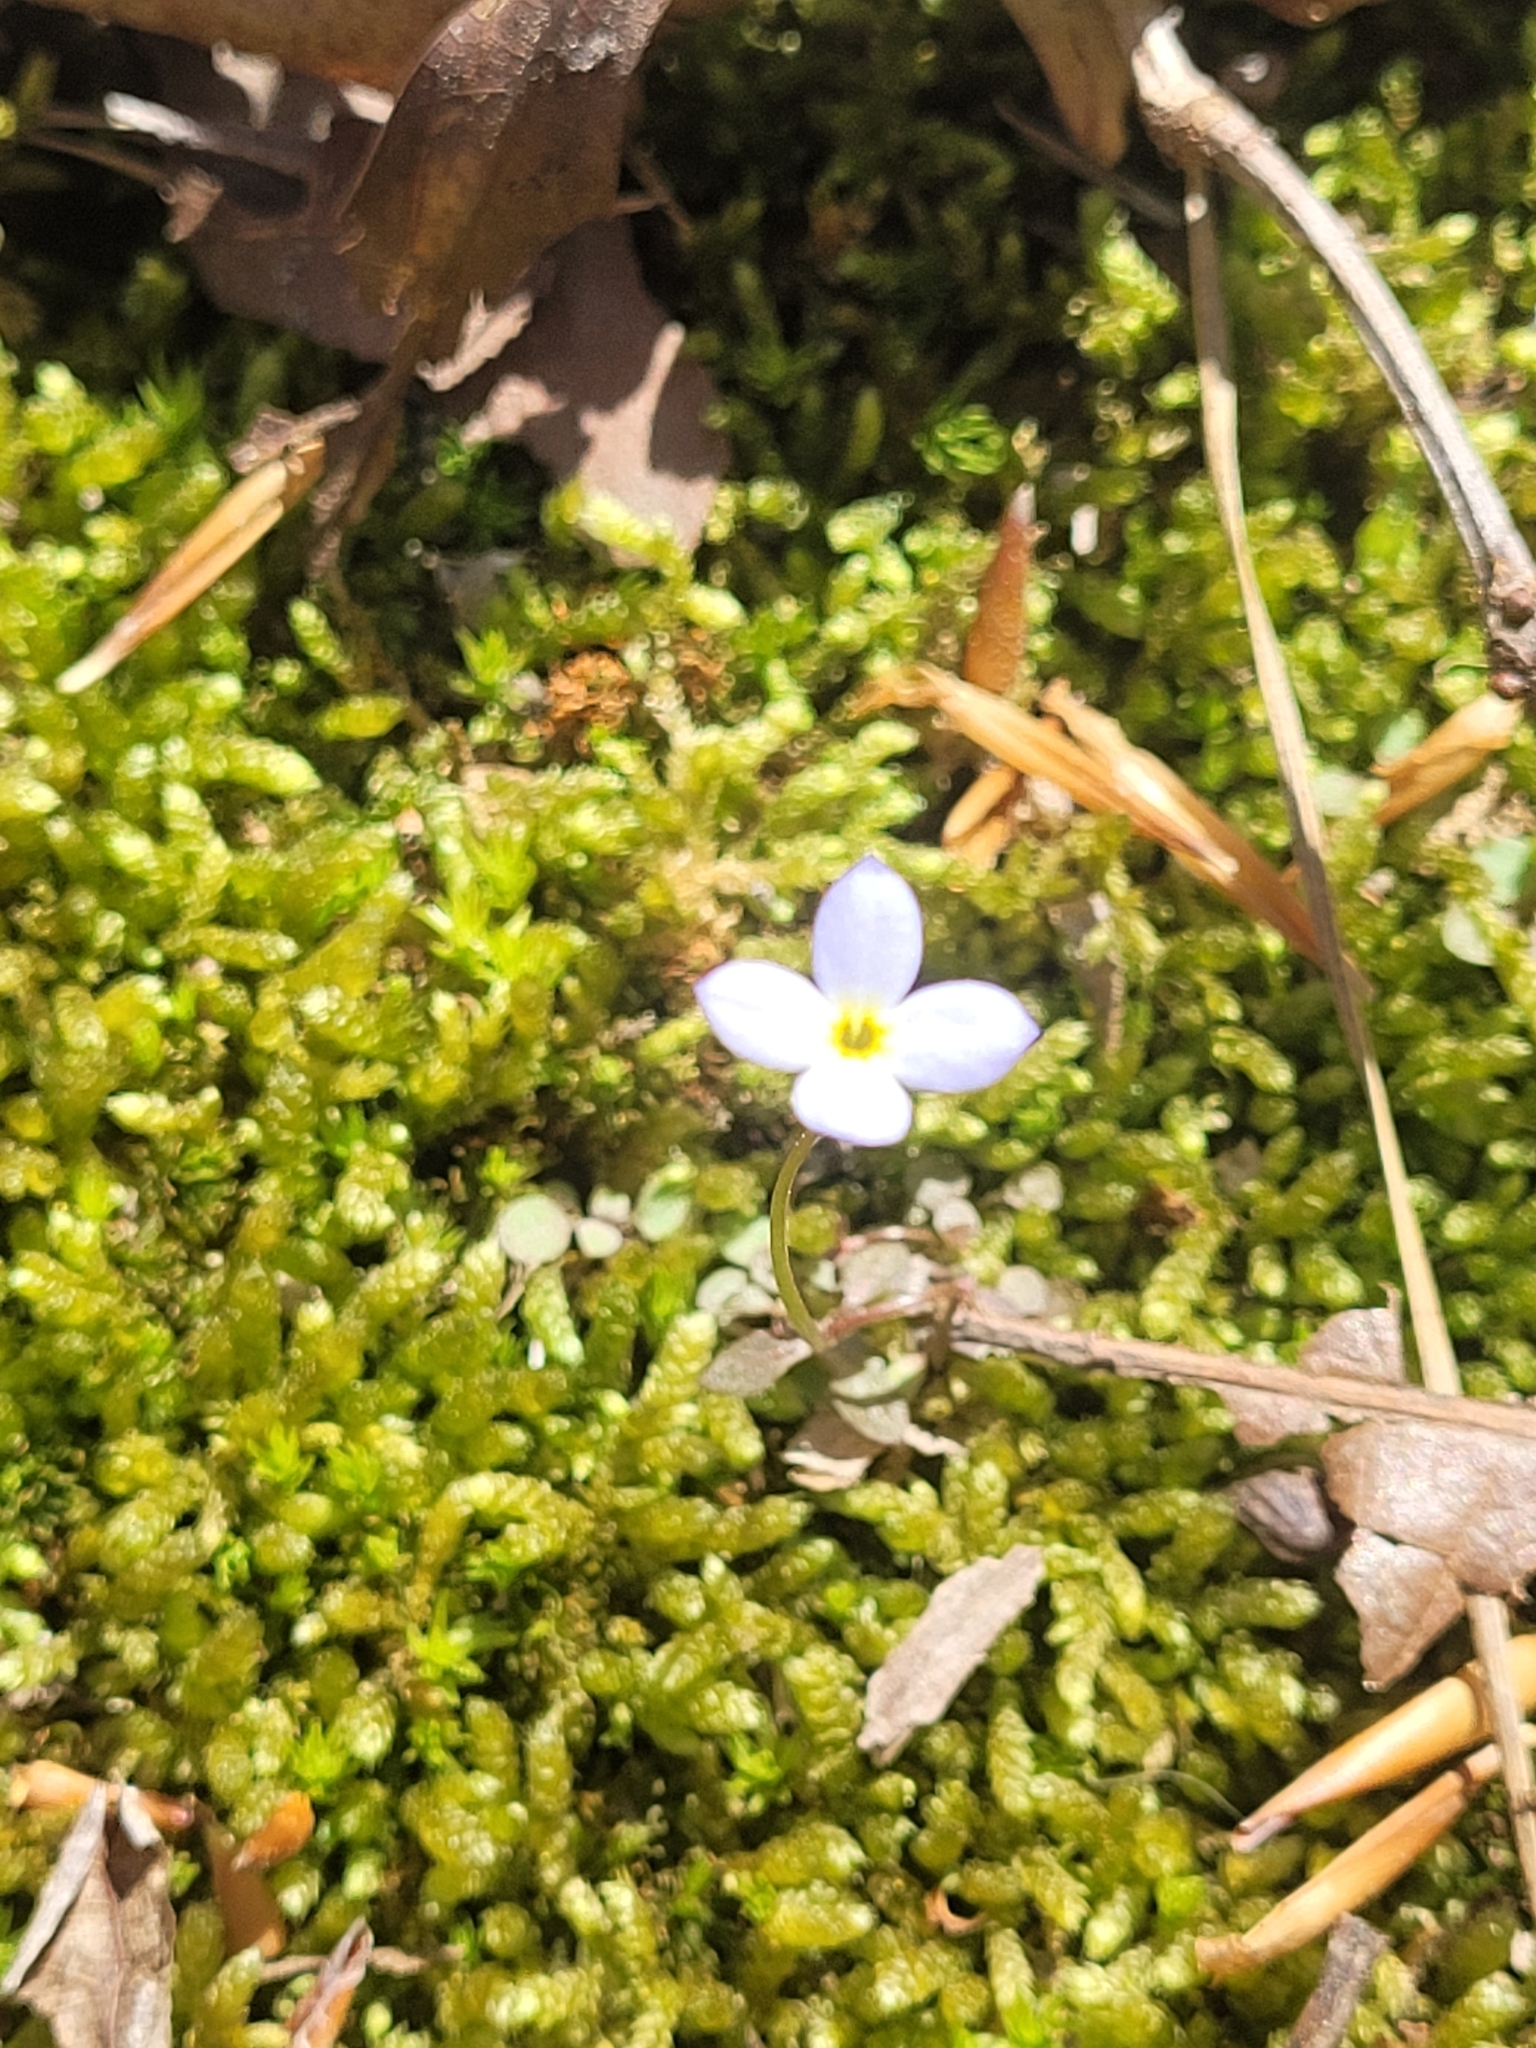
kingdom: Plantae
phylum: Tracheophyta
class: Magnoliopsida
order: Gentianales
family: Rubiaceae
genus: Houstonia
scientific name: Houstonia caerulea
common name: Bluets
